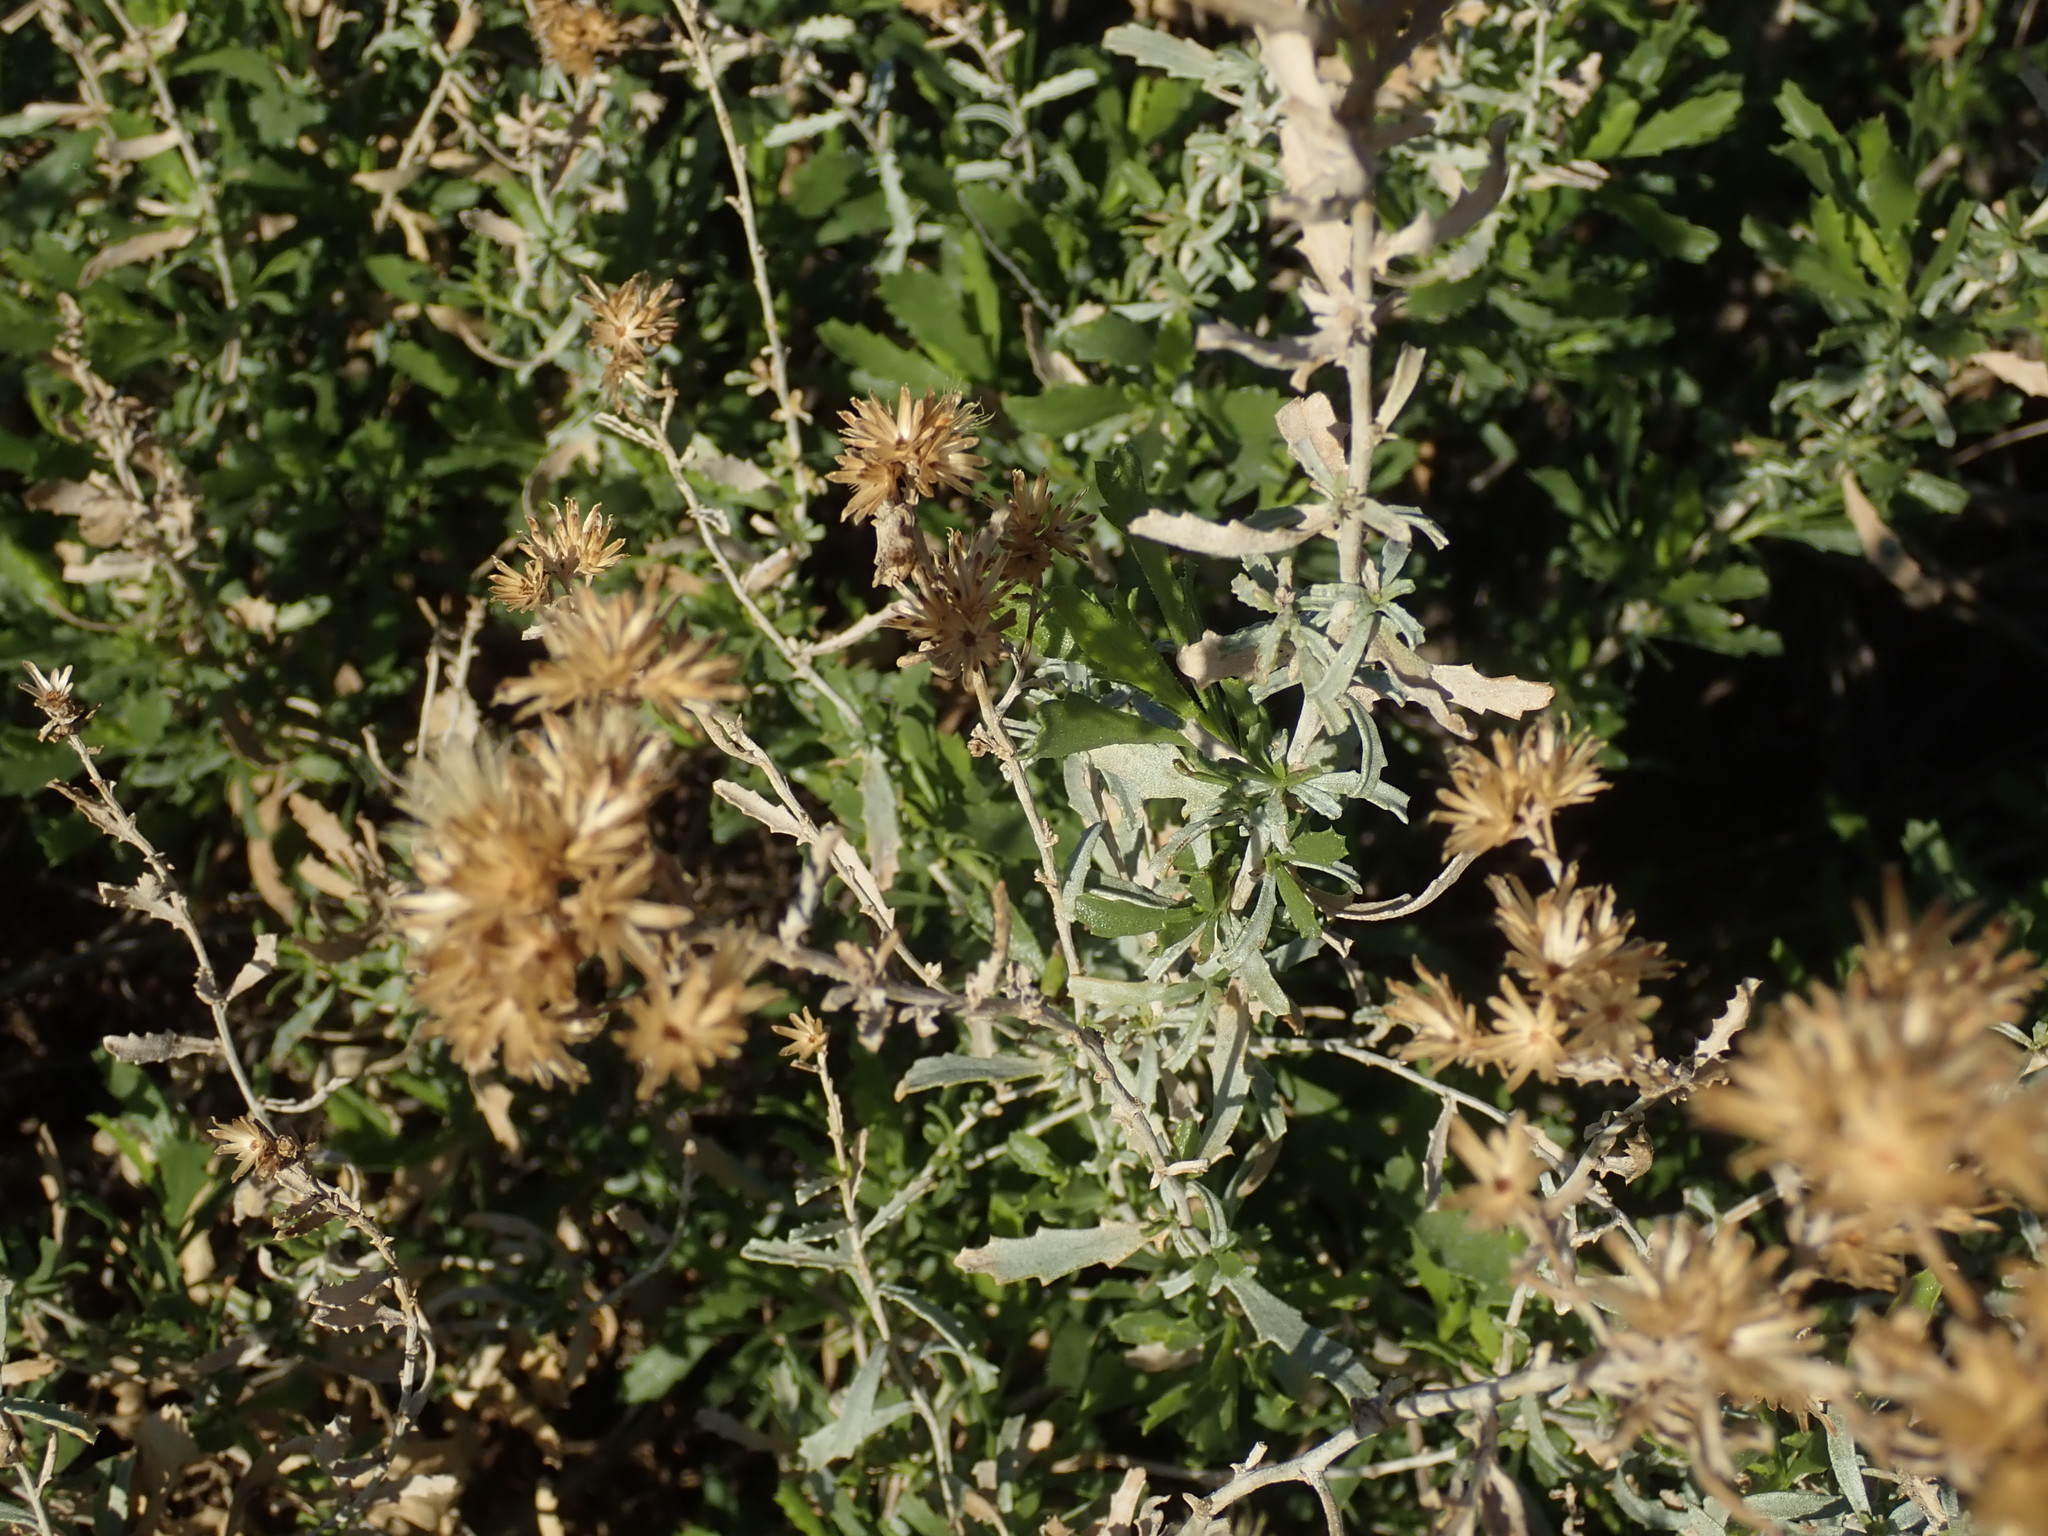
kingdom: Plantae
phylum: Tracheophyta
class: Magnoliopsida
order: Asterales
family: Asteraceae
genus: Isocoma
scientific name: Isocoma acradenia
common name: Alkali jimmyweed
